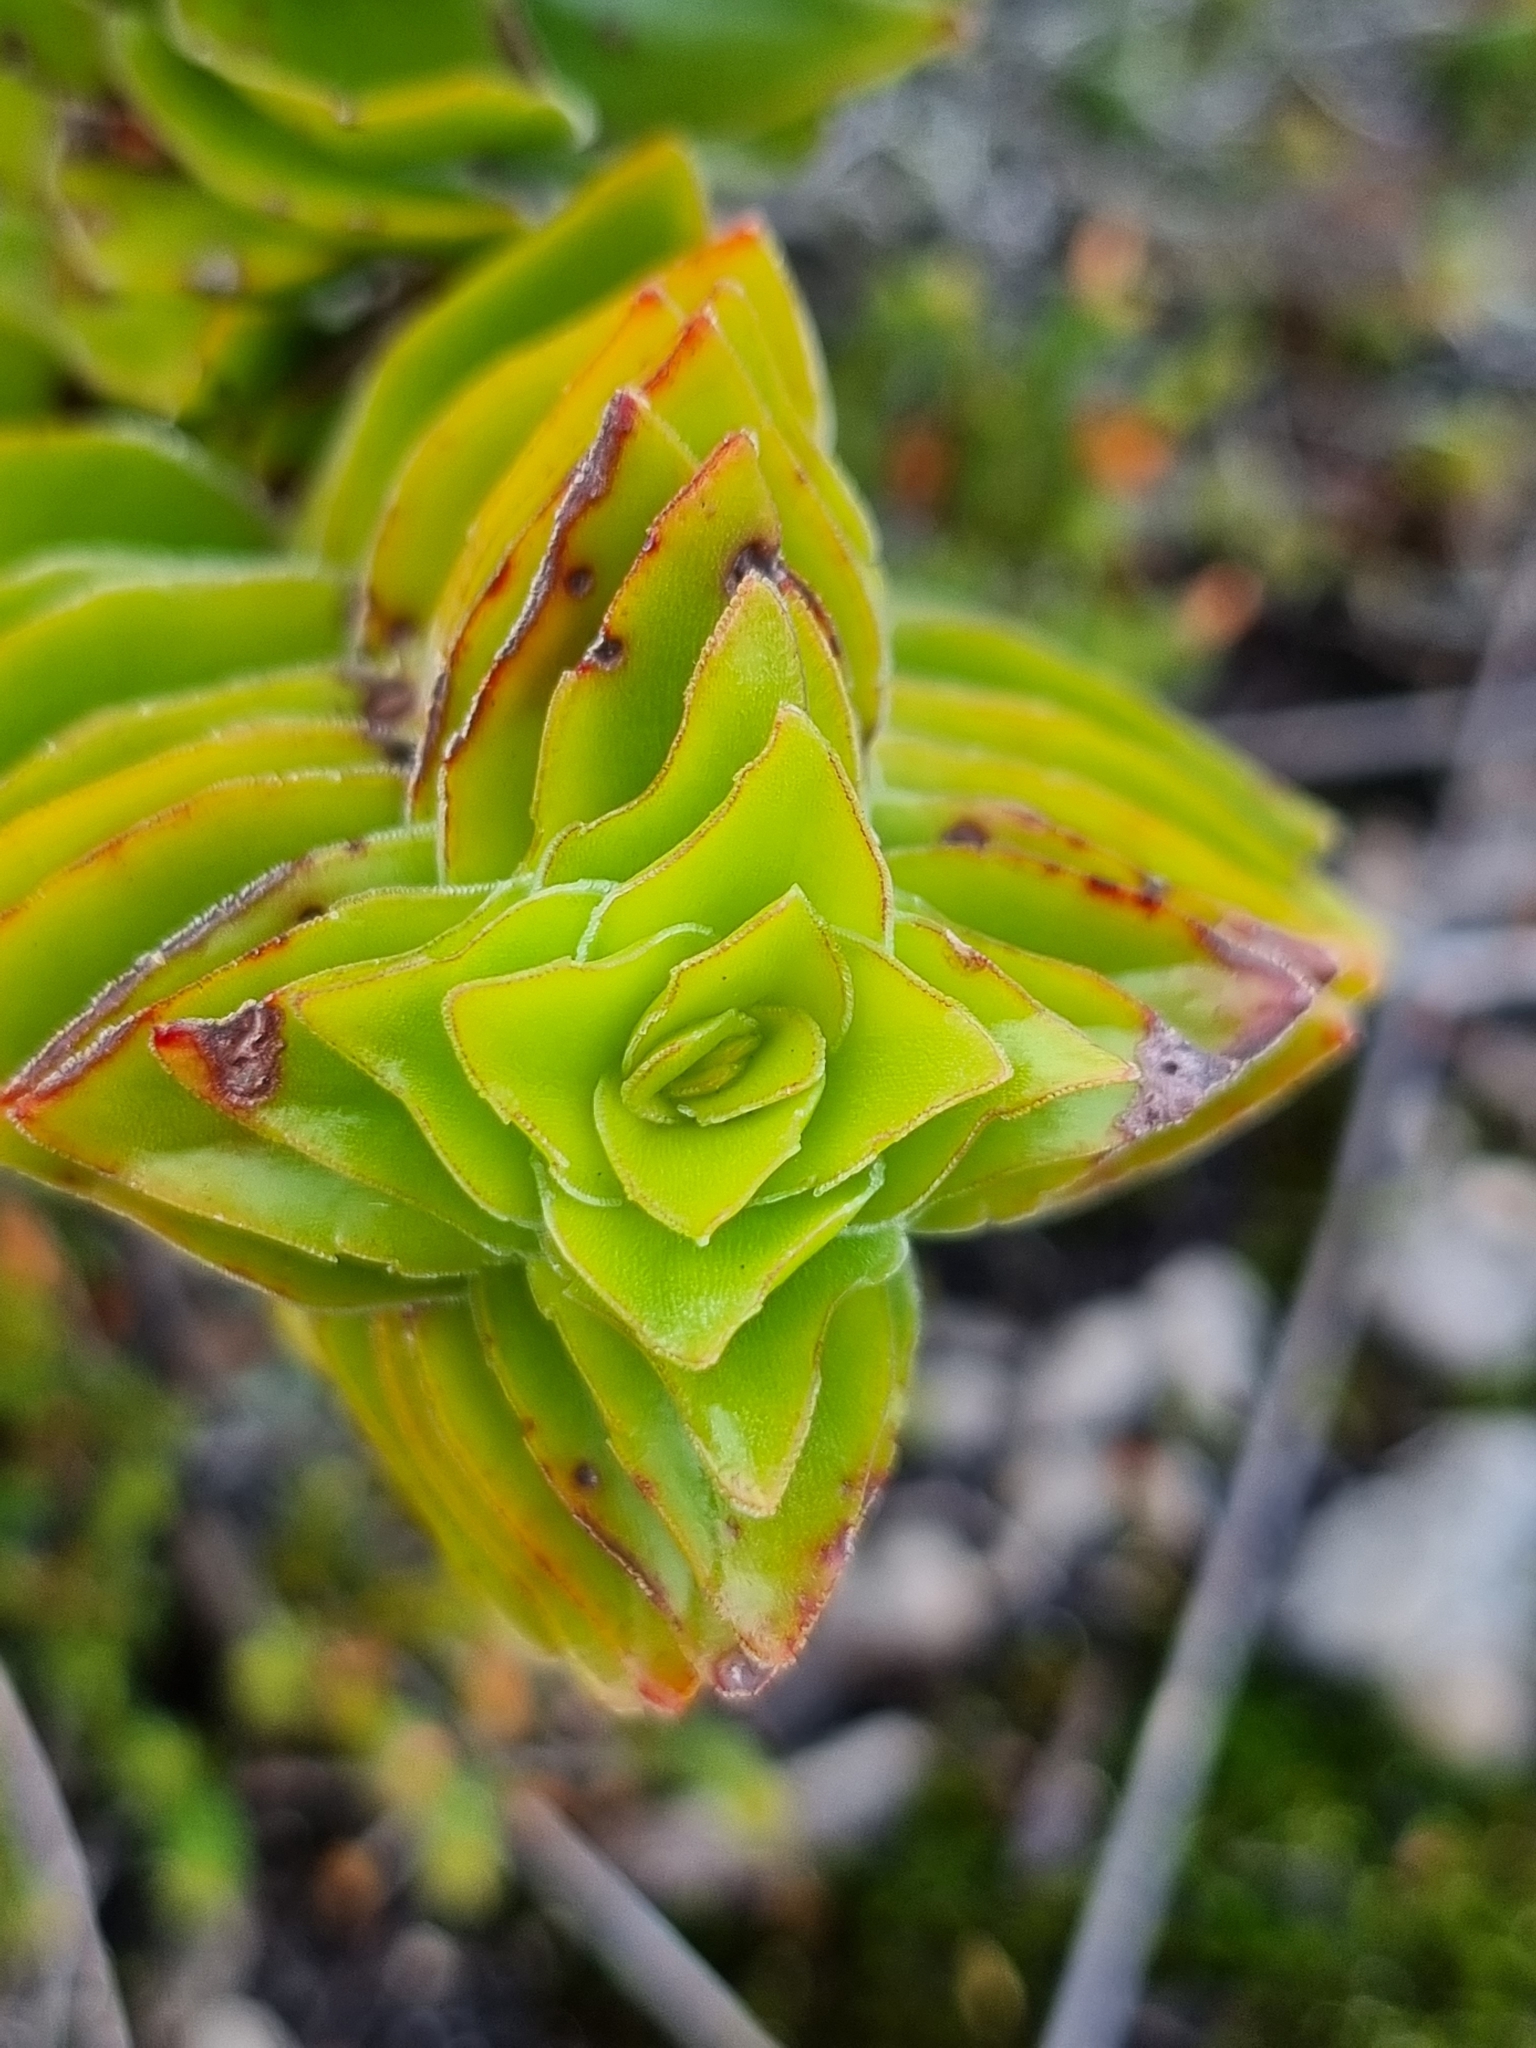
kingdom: Plantae
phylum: Tracheophyta
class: Magnoliopsida
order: Saxifragales
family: Crassulaceae
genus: Crassula
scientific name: Crassula coccinea
